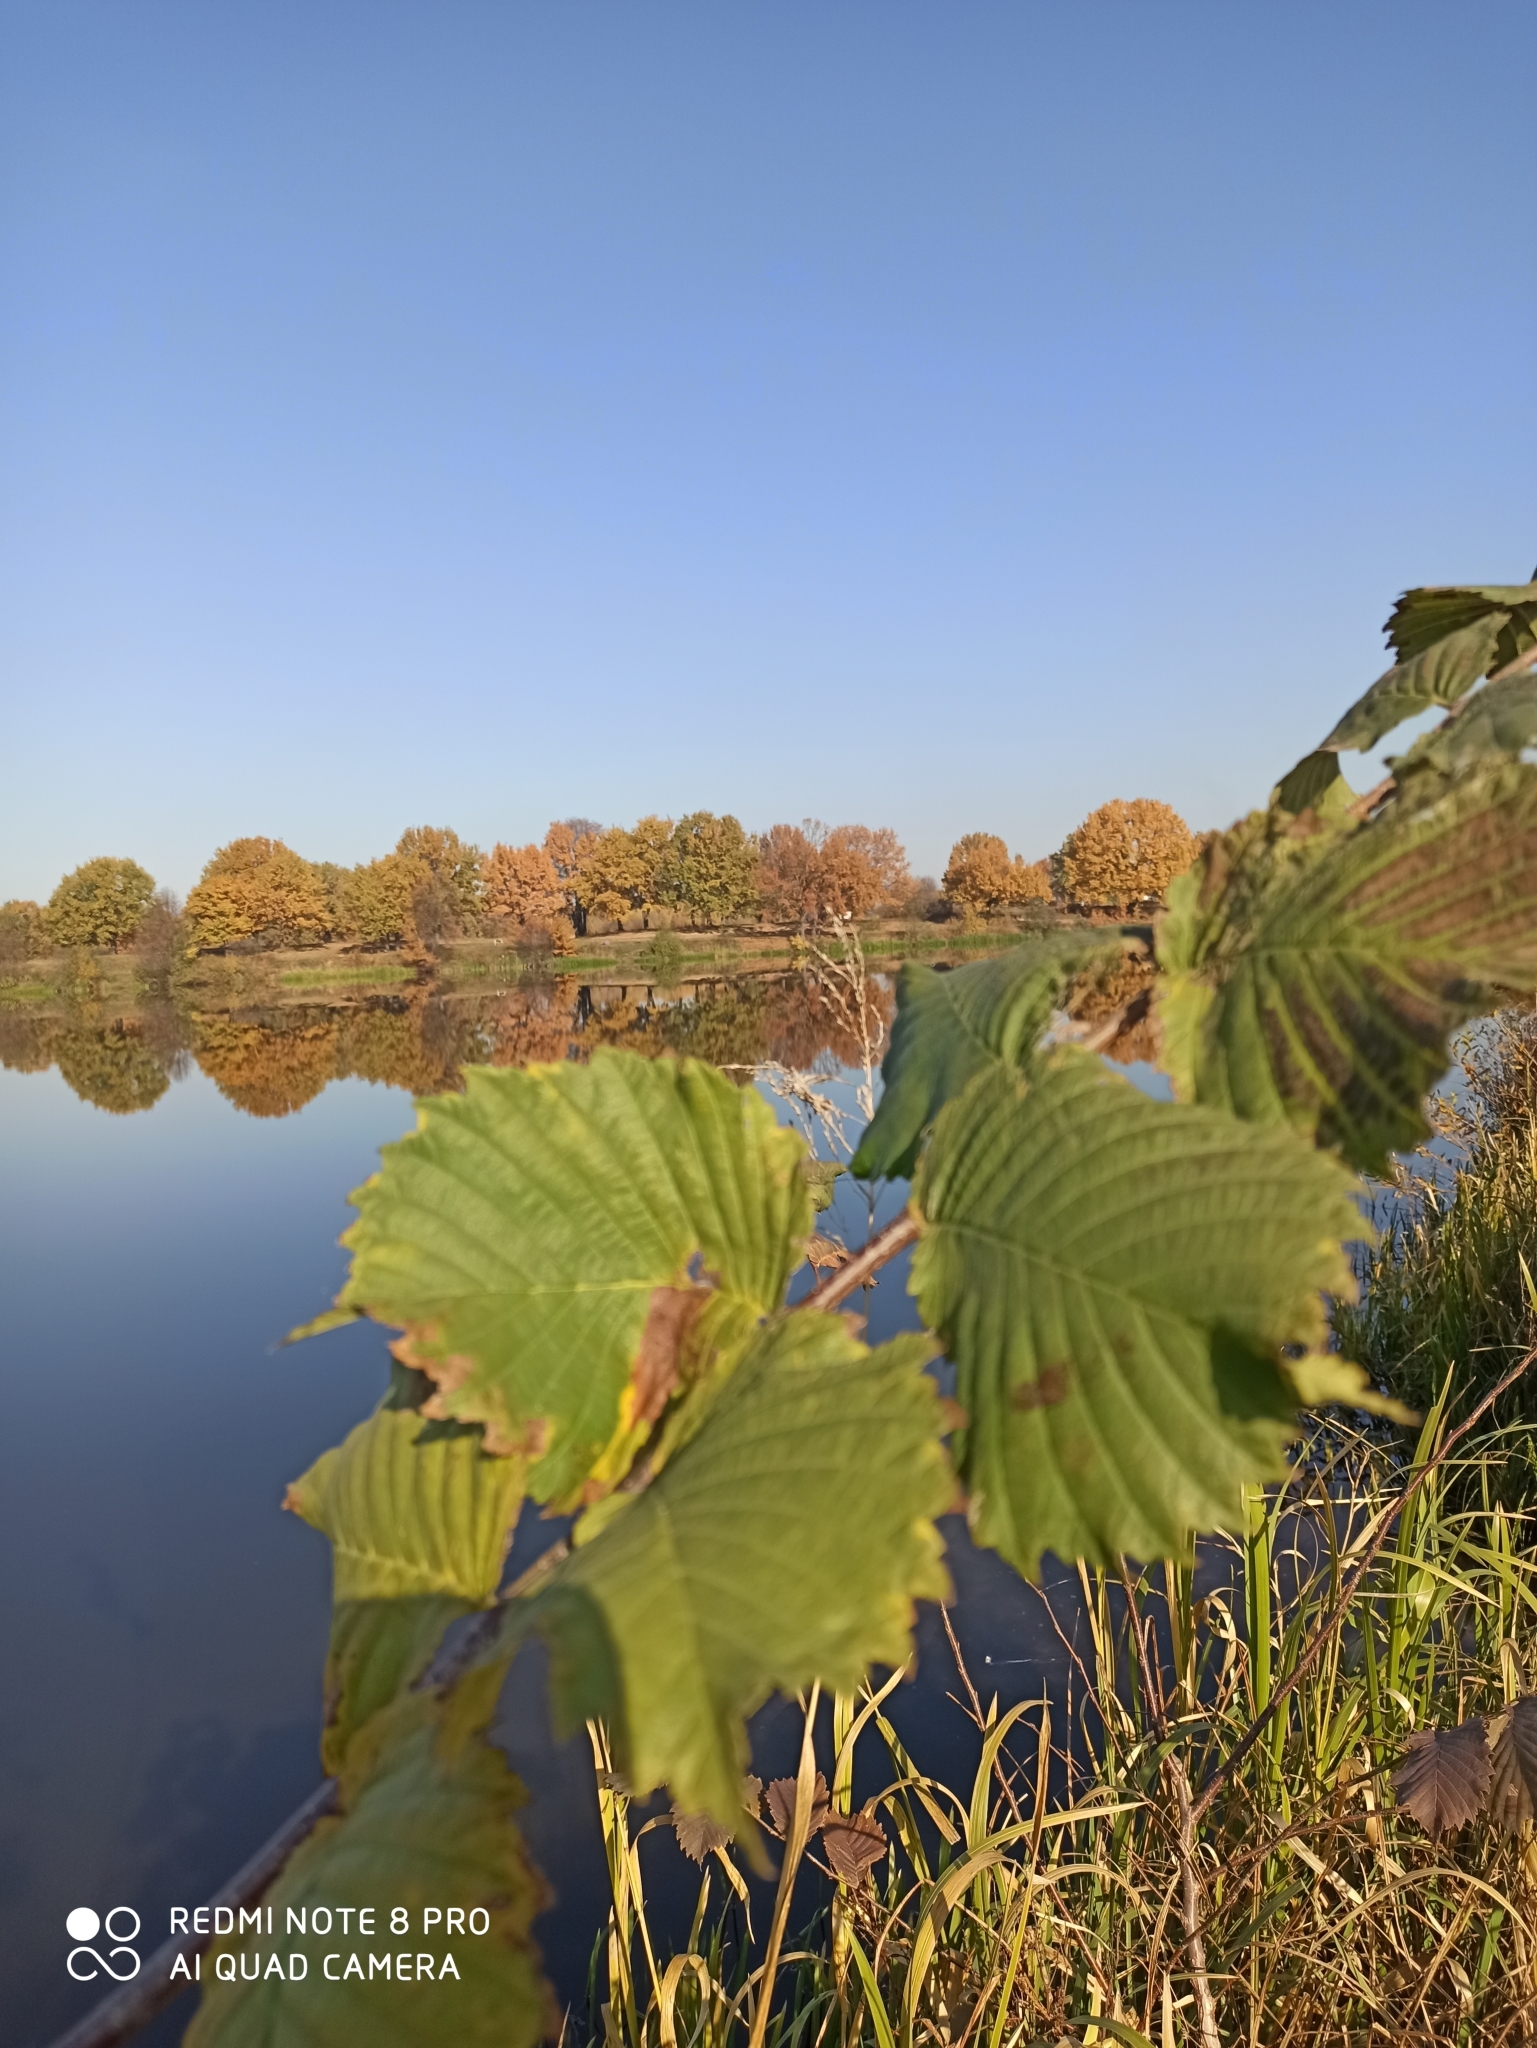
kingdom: Plantae
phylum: Tracheophyta
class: Magnoliopsida
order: Rosales
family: Ulmaceae
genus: Ulmus
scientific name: Ulmus laevis
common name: European white-elm
